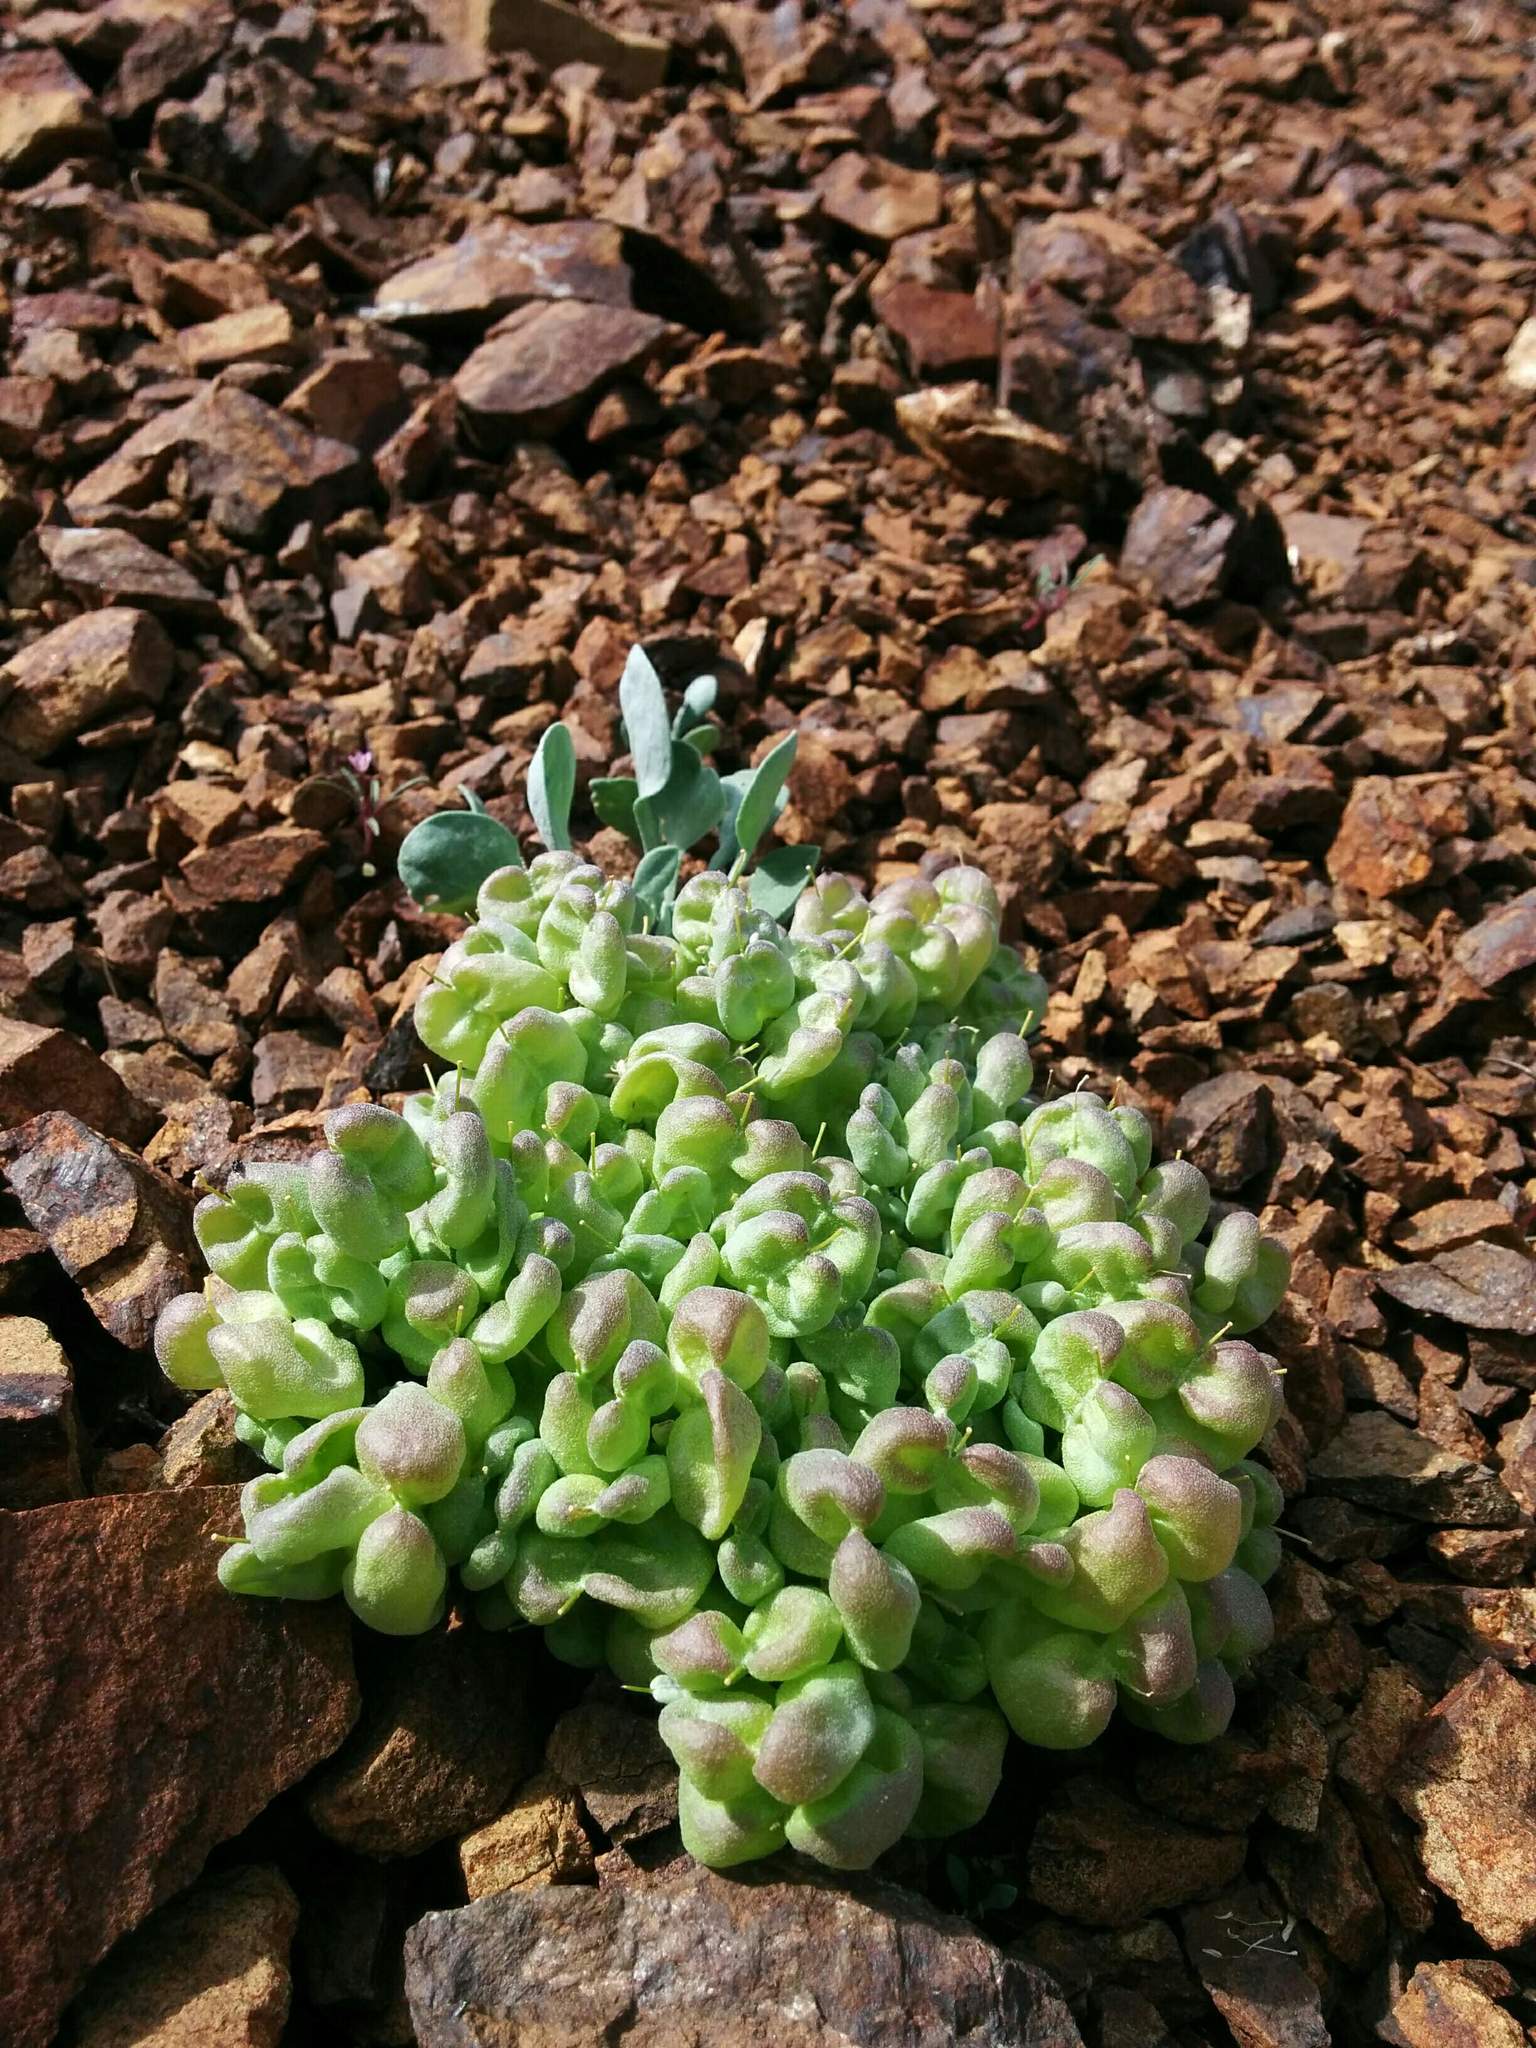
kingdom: Plantae
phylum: Tracheophyta
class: Magnoliopsida
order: Brassicales
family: Brassicaceae
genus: Physaria
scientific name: Physaria alpestris
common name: Washington twinpod
